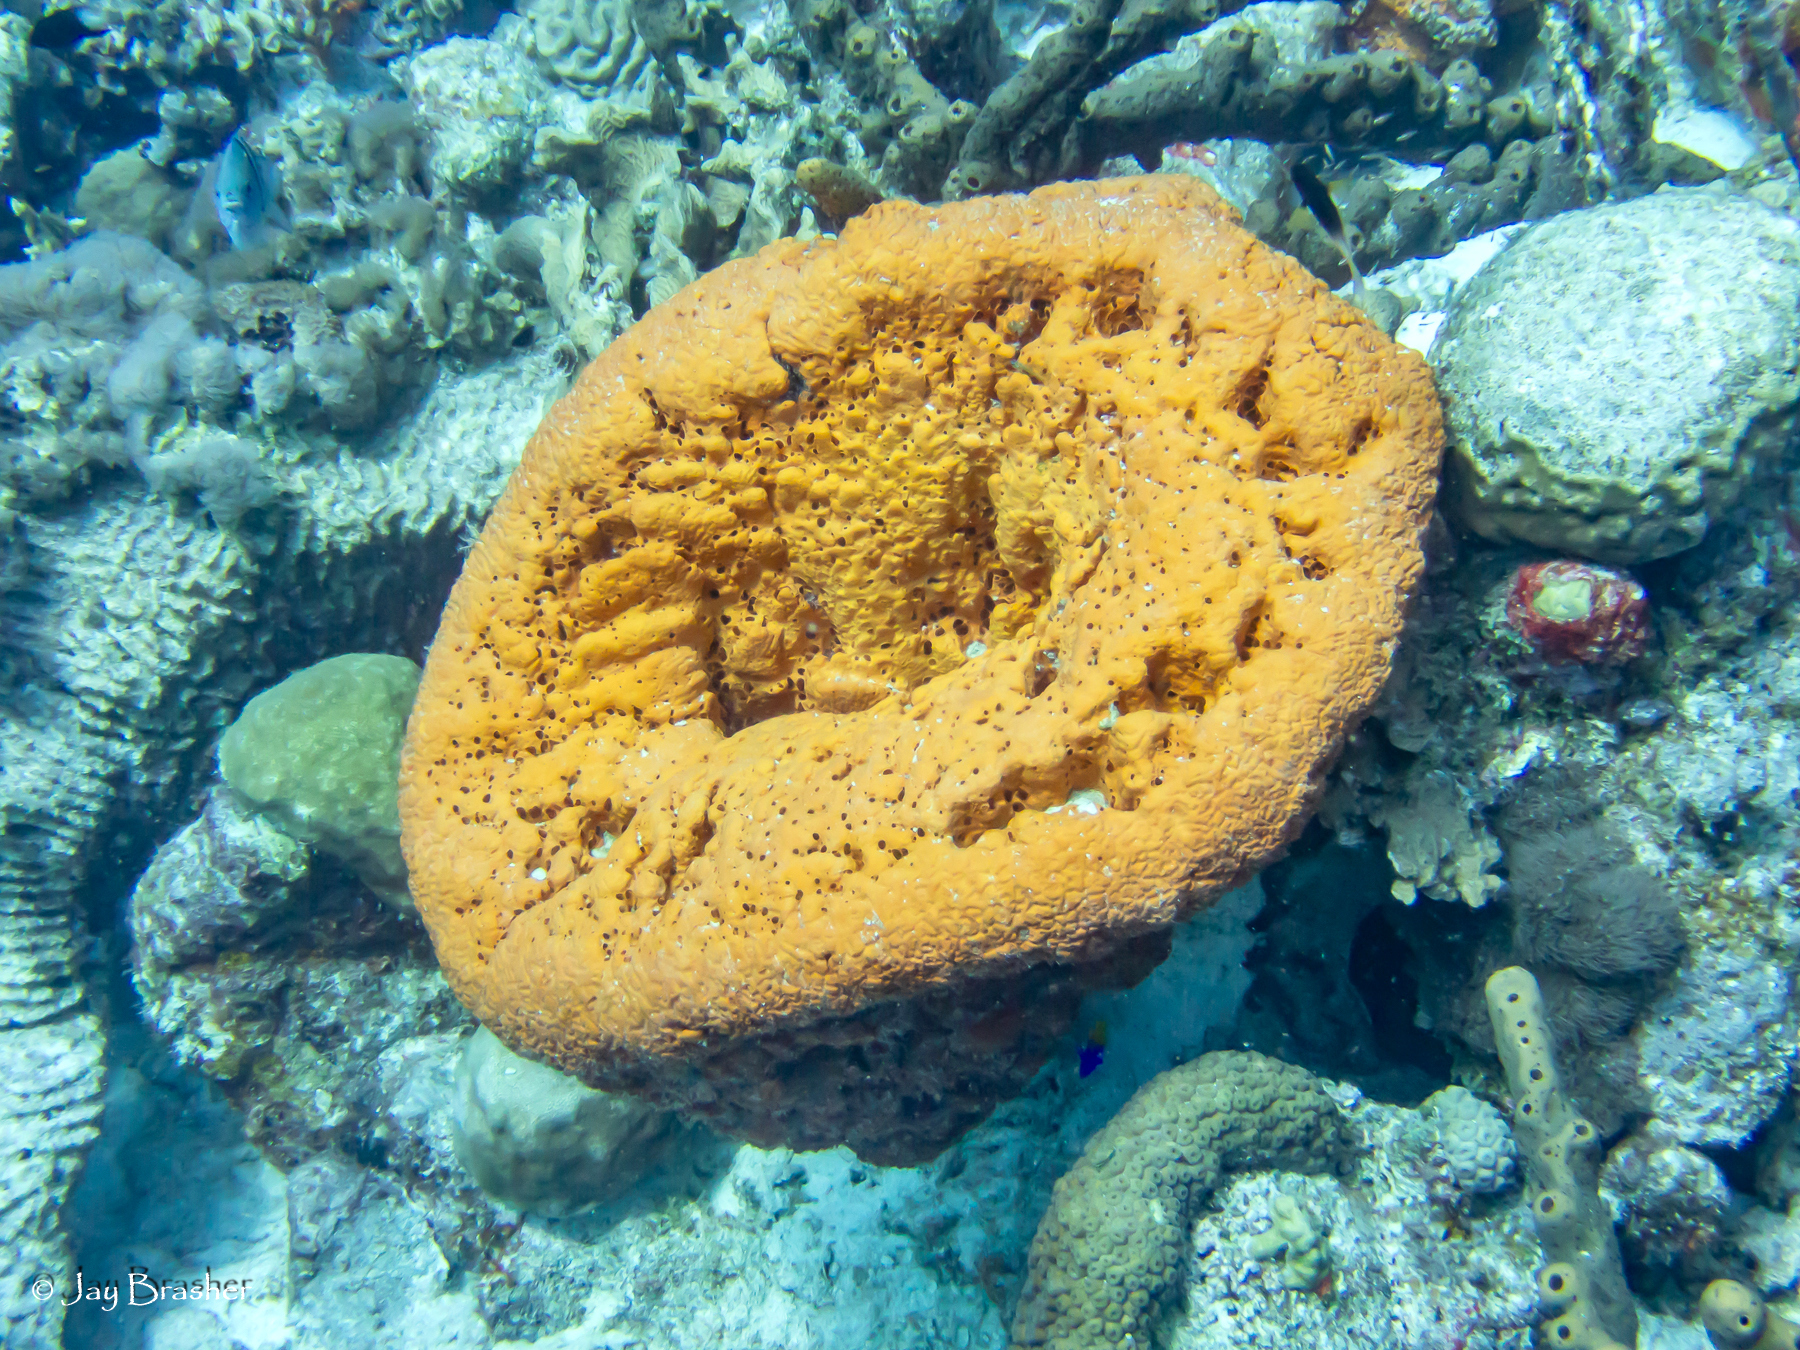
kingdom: Animalia
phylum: Porifera
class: Demospongiae
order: Agelasida
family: Agelasidae
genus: Agelas
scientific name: Agelas clathrodes
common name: Orange elephant ear sponge
